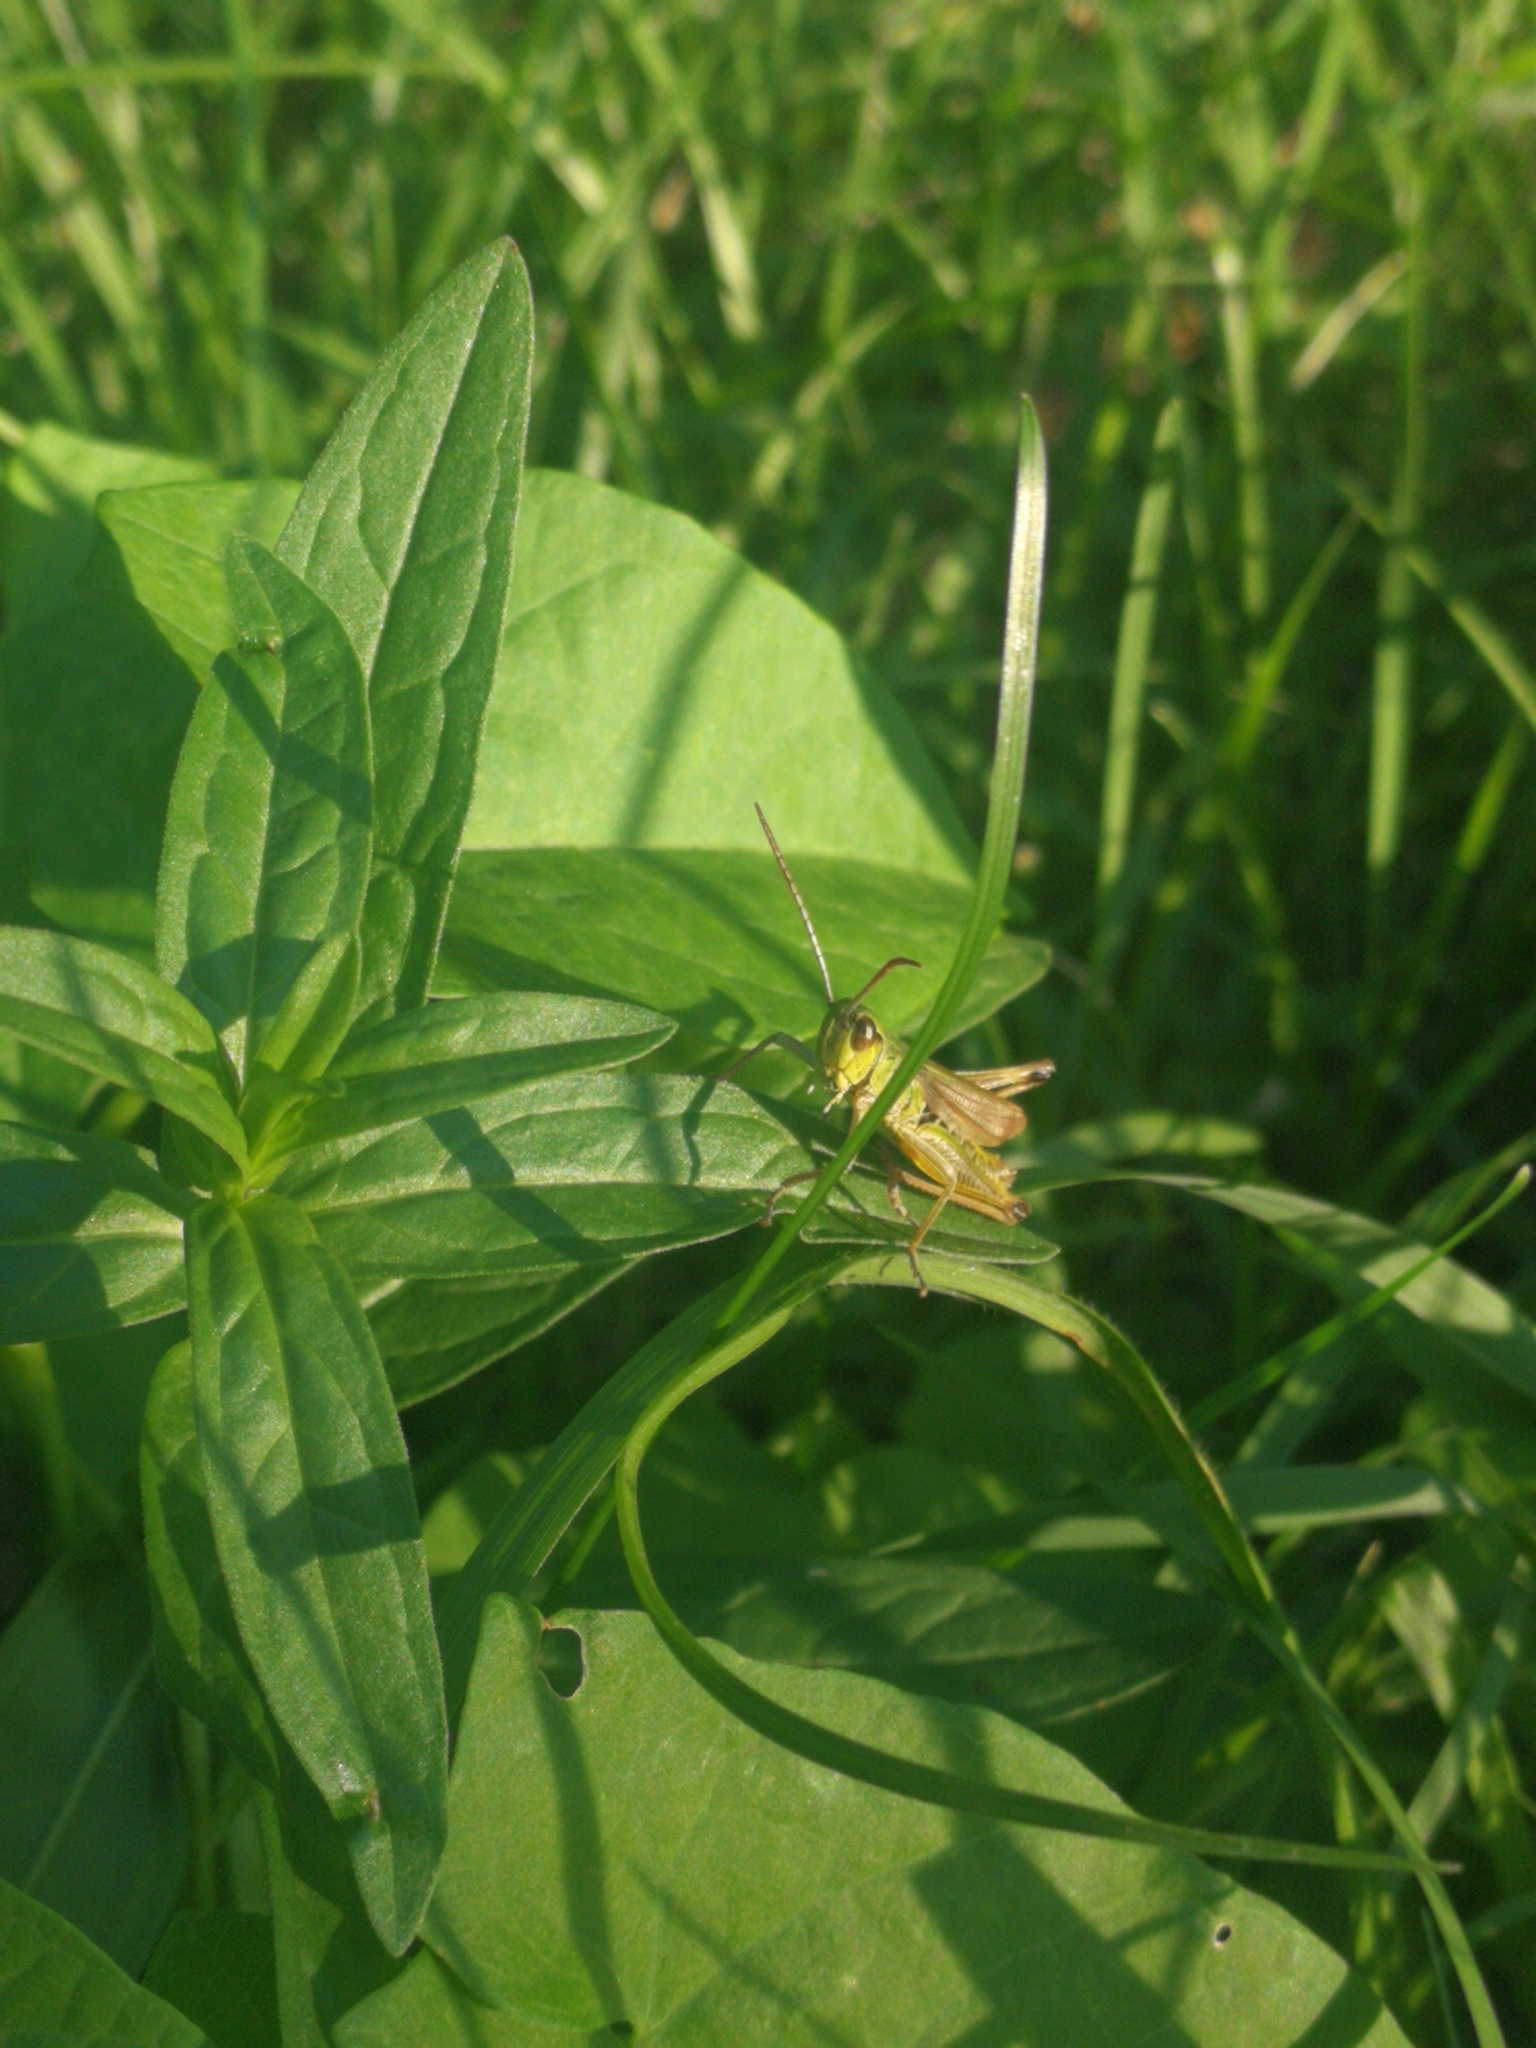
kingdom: Animalia
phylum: Arthropoda
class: Insecta
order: Orthoptera
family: Acrididae
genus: Pseudochorthippus
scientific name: Pseudochorthippus parallelus
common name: Meadow grasshopper
